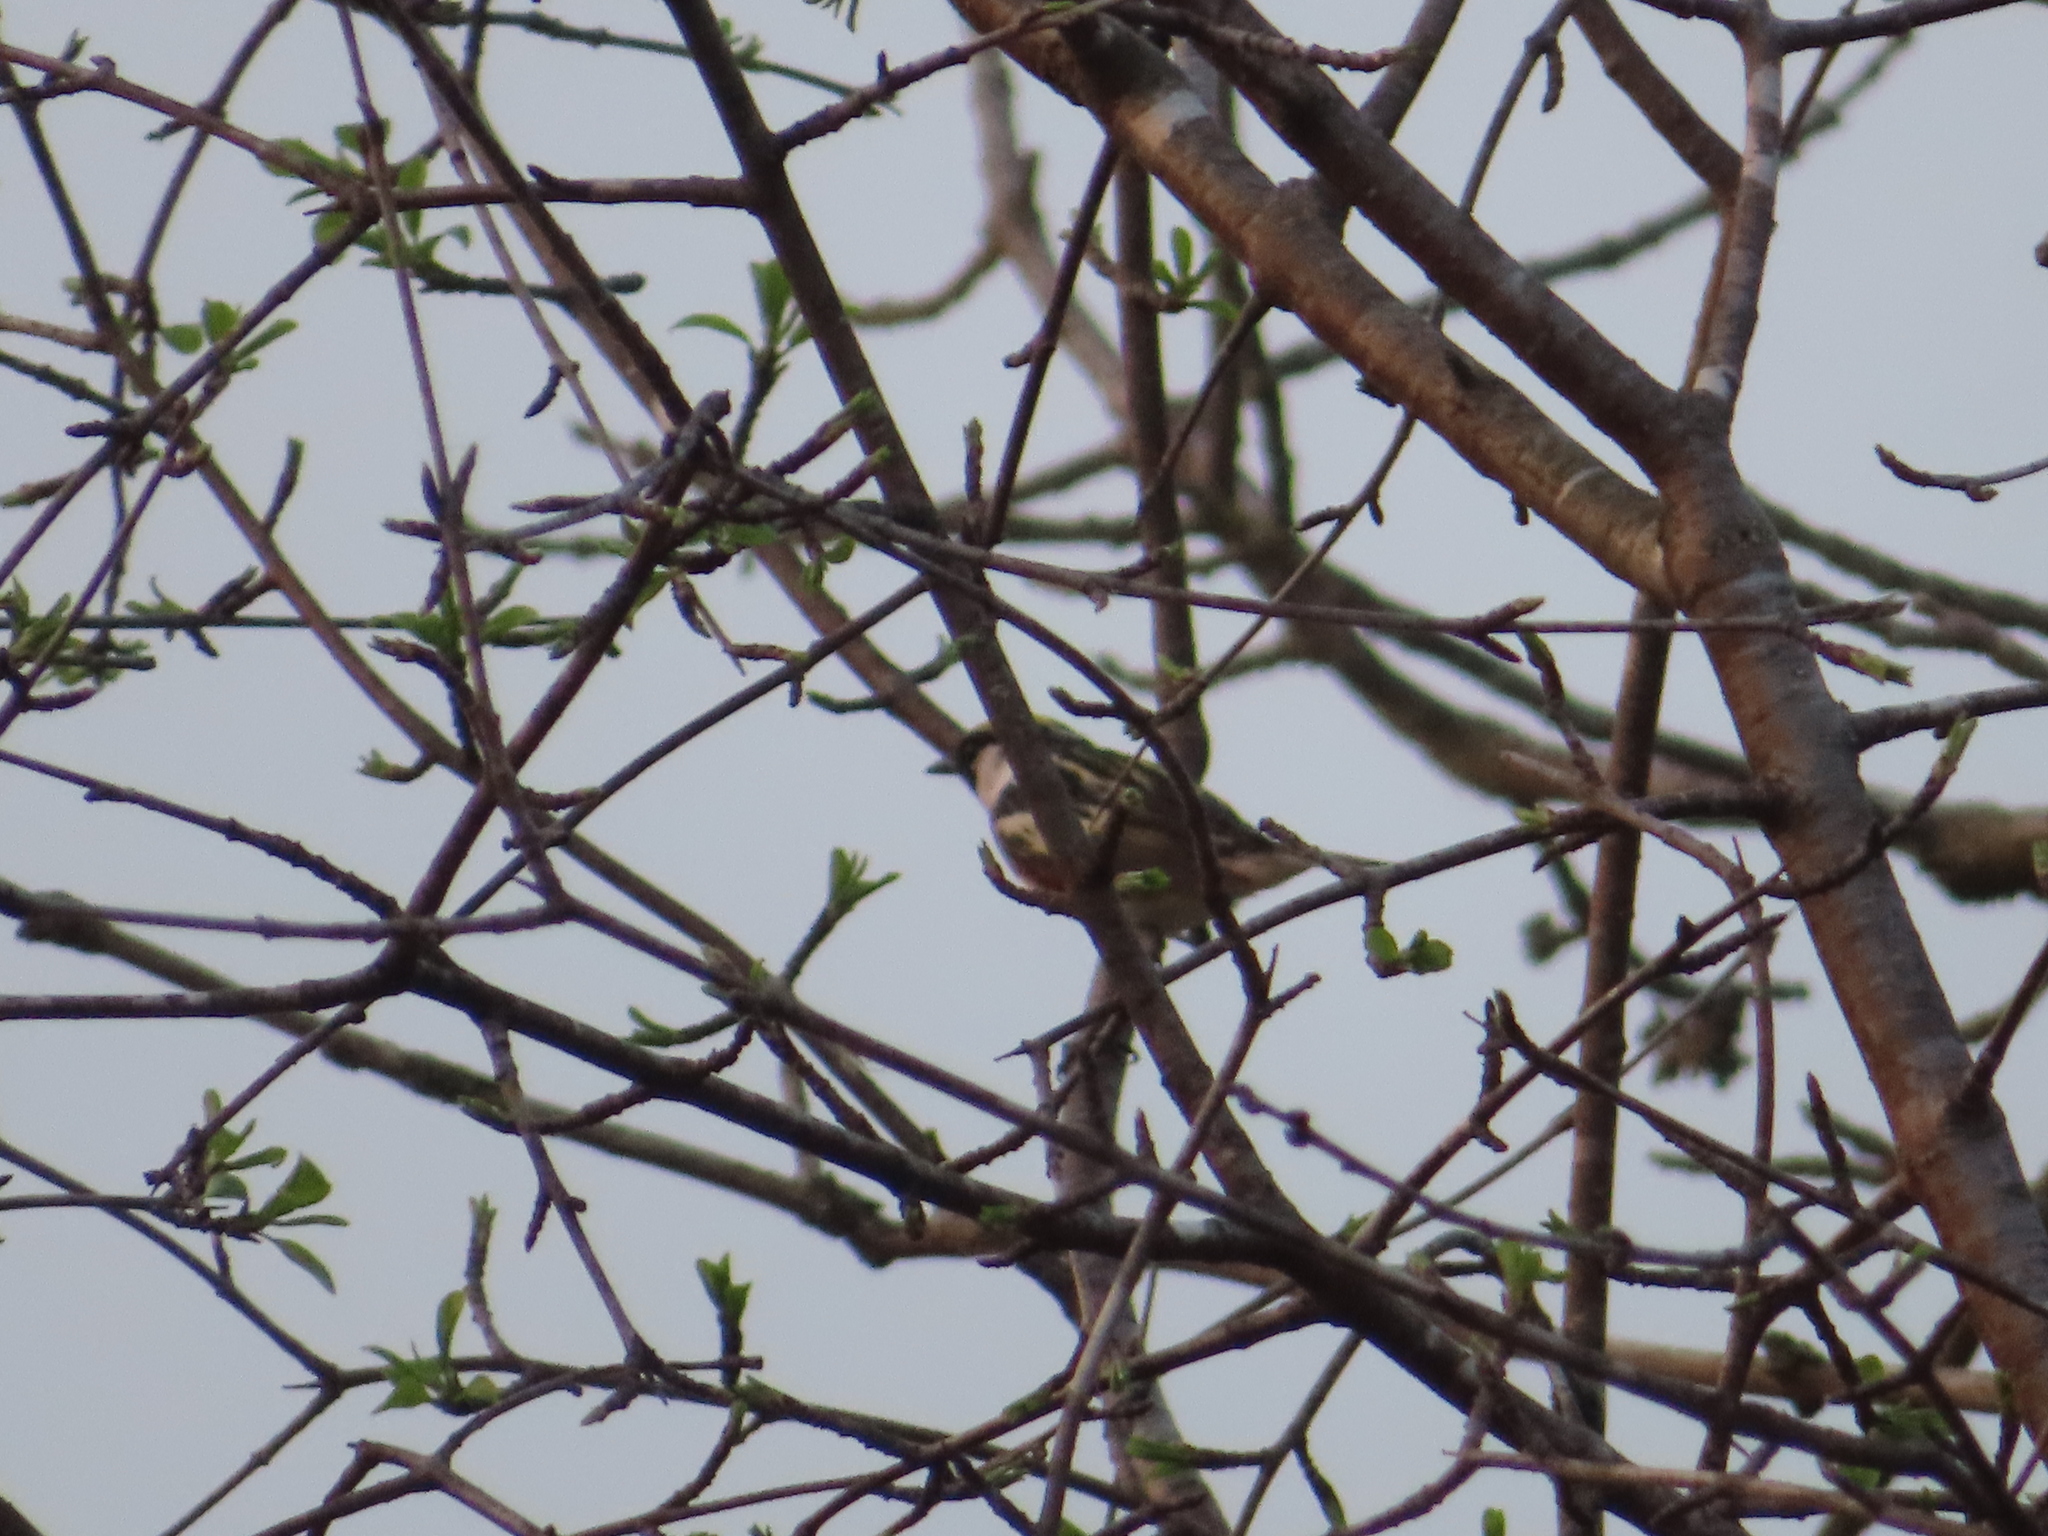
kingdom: Animalia
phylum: Chordata
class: Aves
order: Passeriformes
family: Parulidae
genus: Setophaga
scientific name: Setophaga pensylvanica
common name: Chestnut-sided warbler
